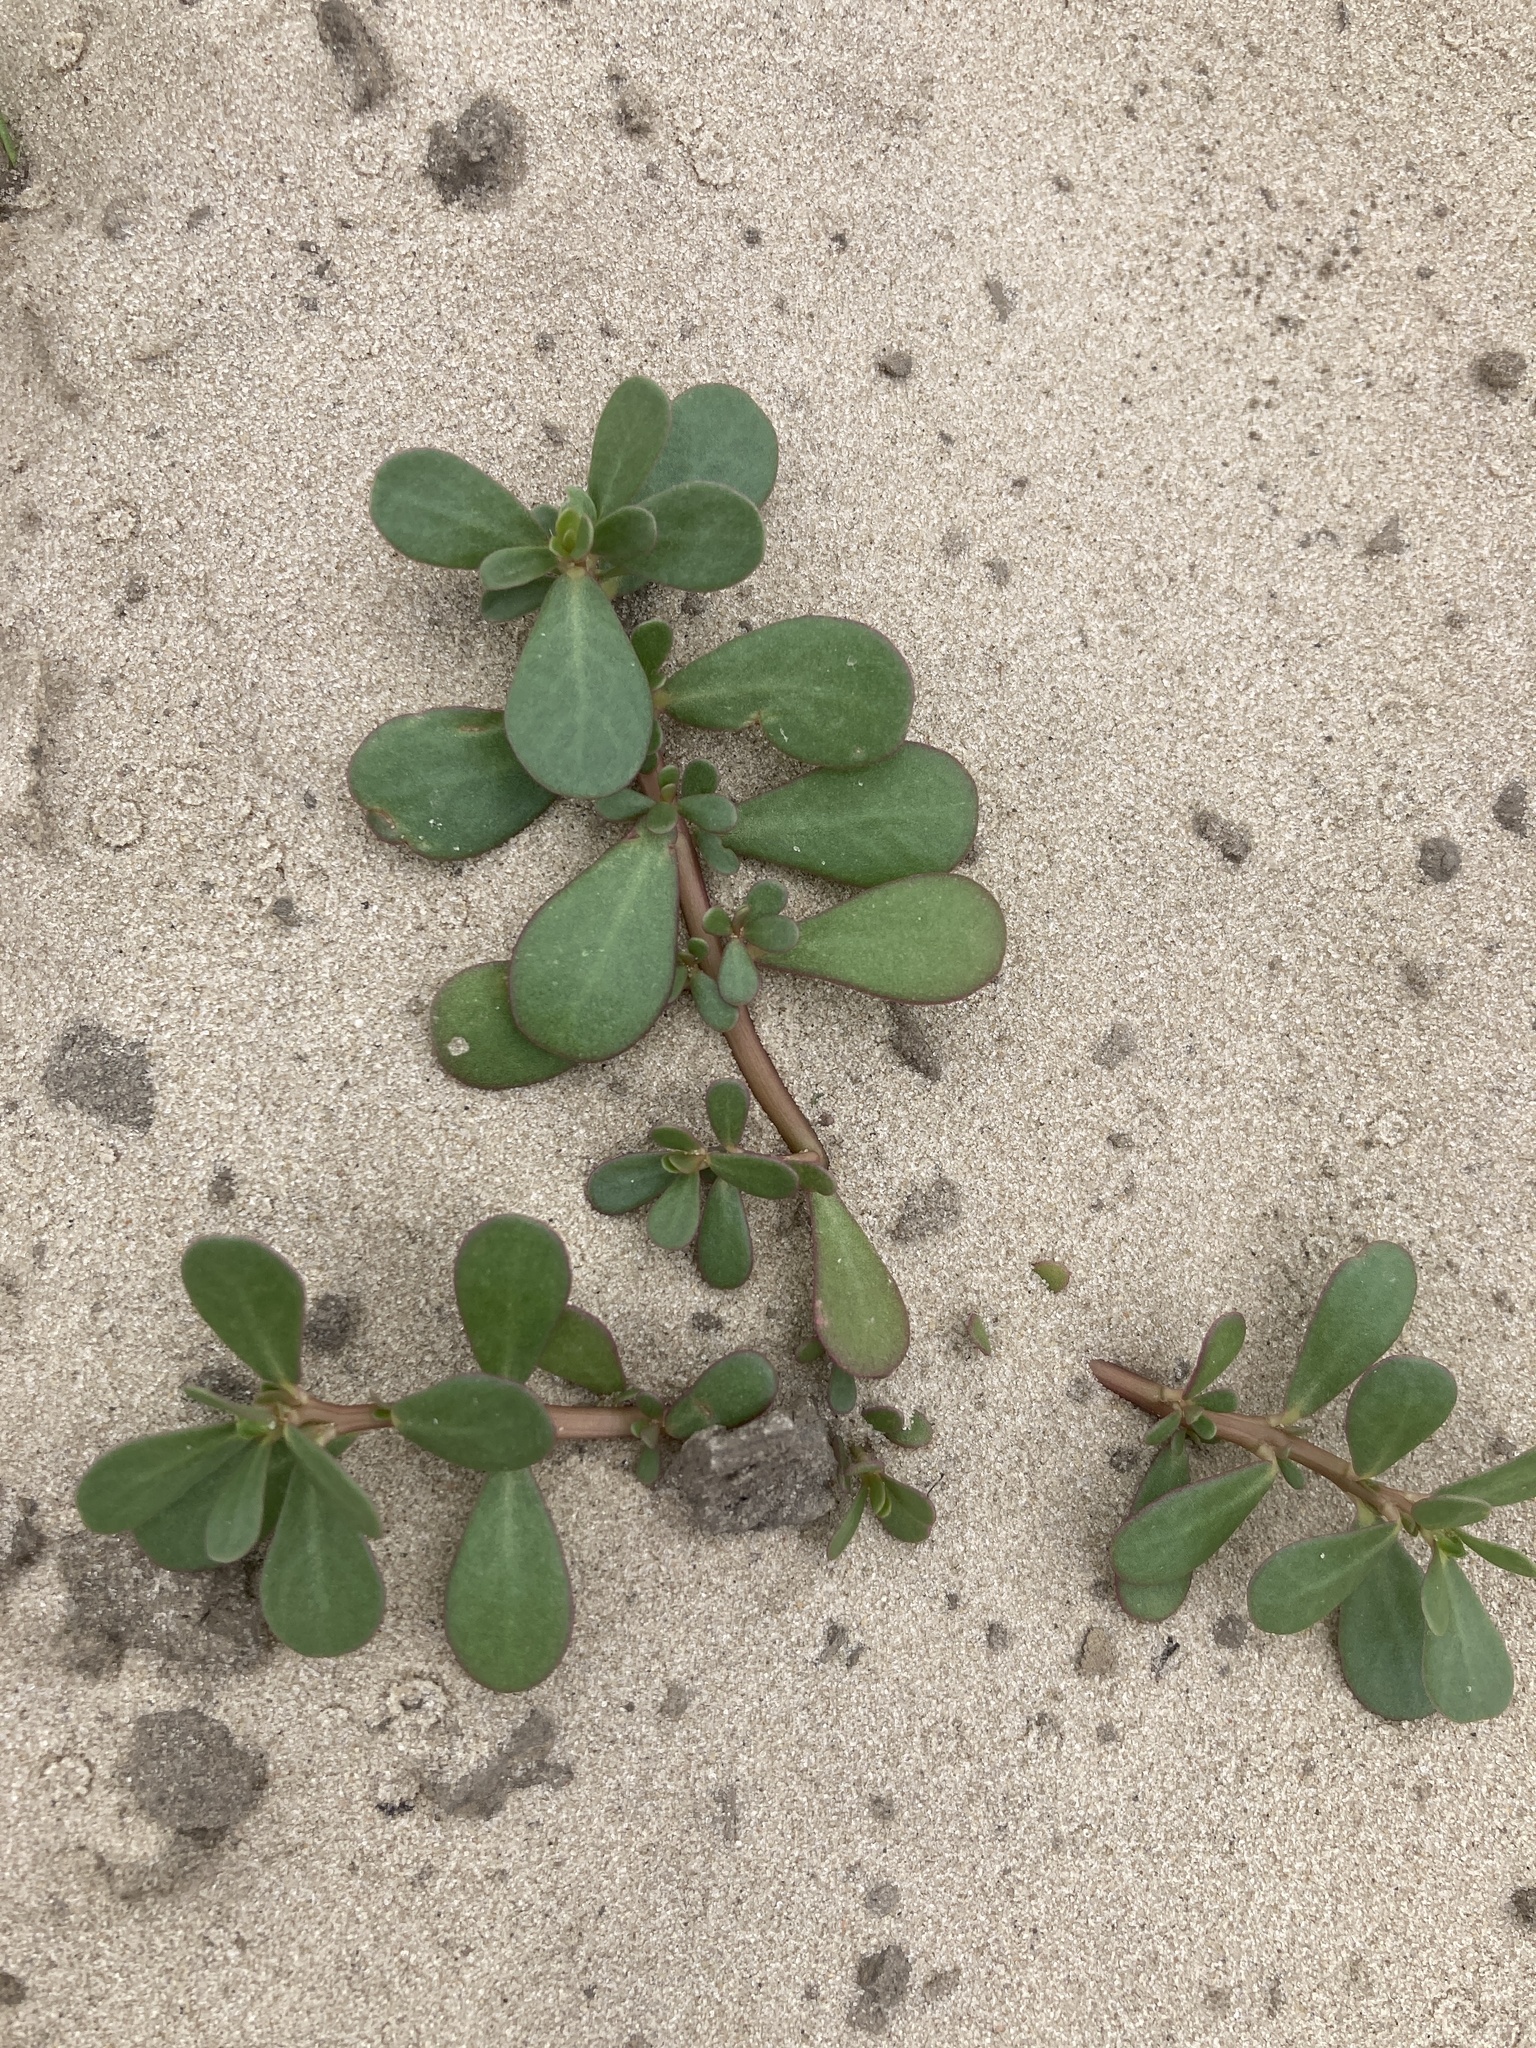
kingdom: Plantae
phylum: Tracheophyta
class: Magnoliopsida
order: Caryophyllales
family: Portulacaceae
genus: Portulaca
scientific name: Portulaca oleracea
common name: Common purslane
